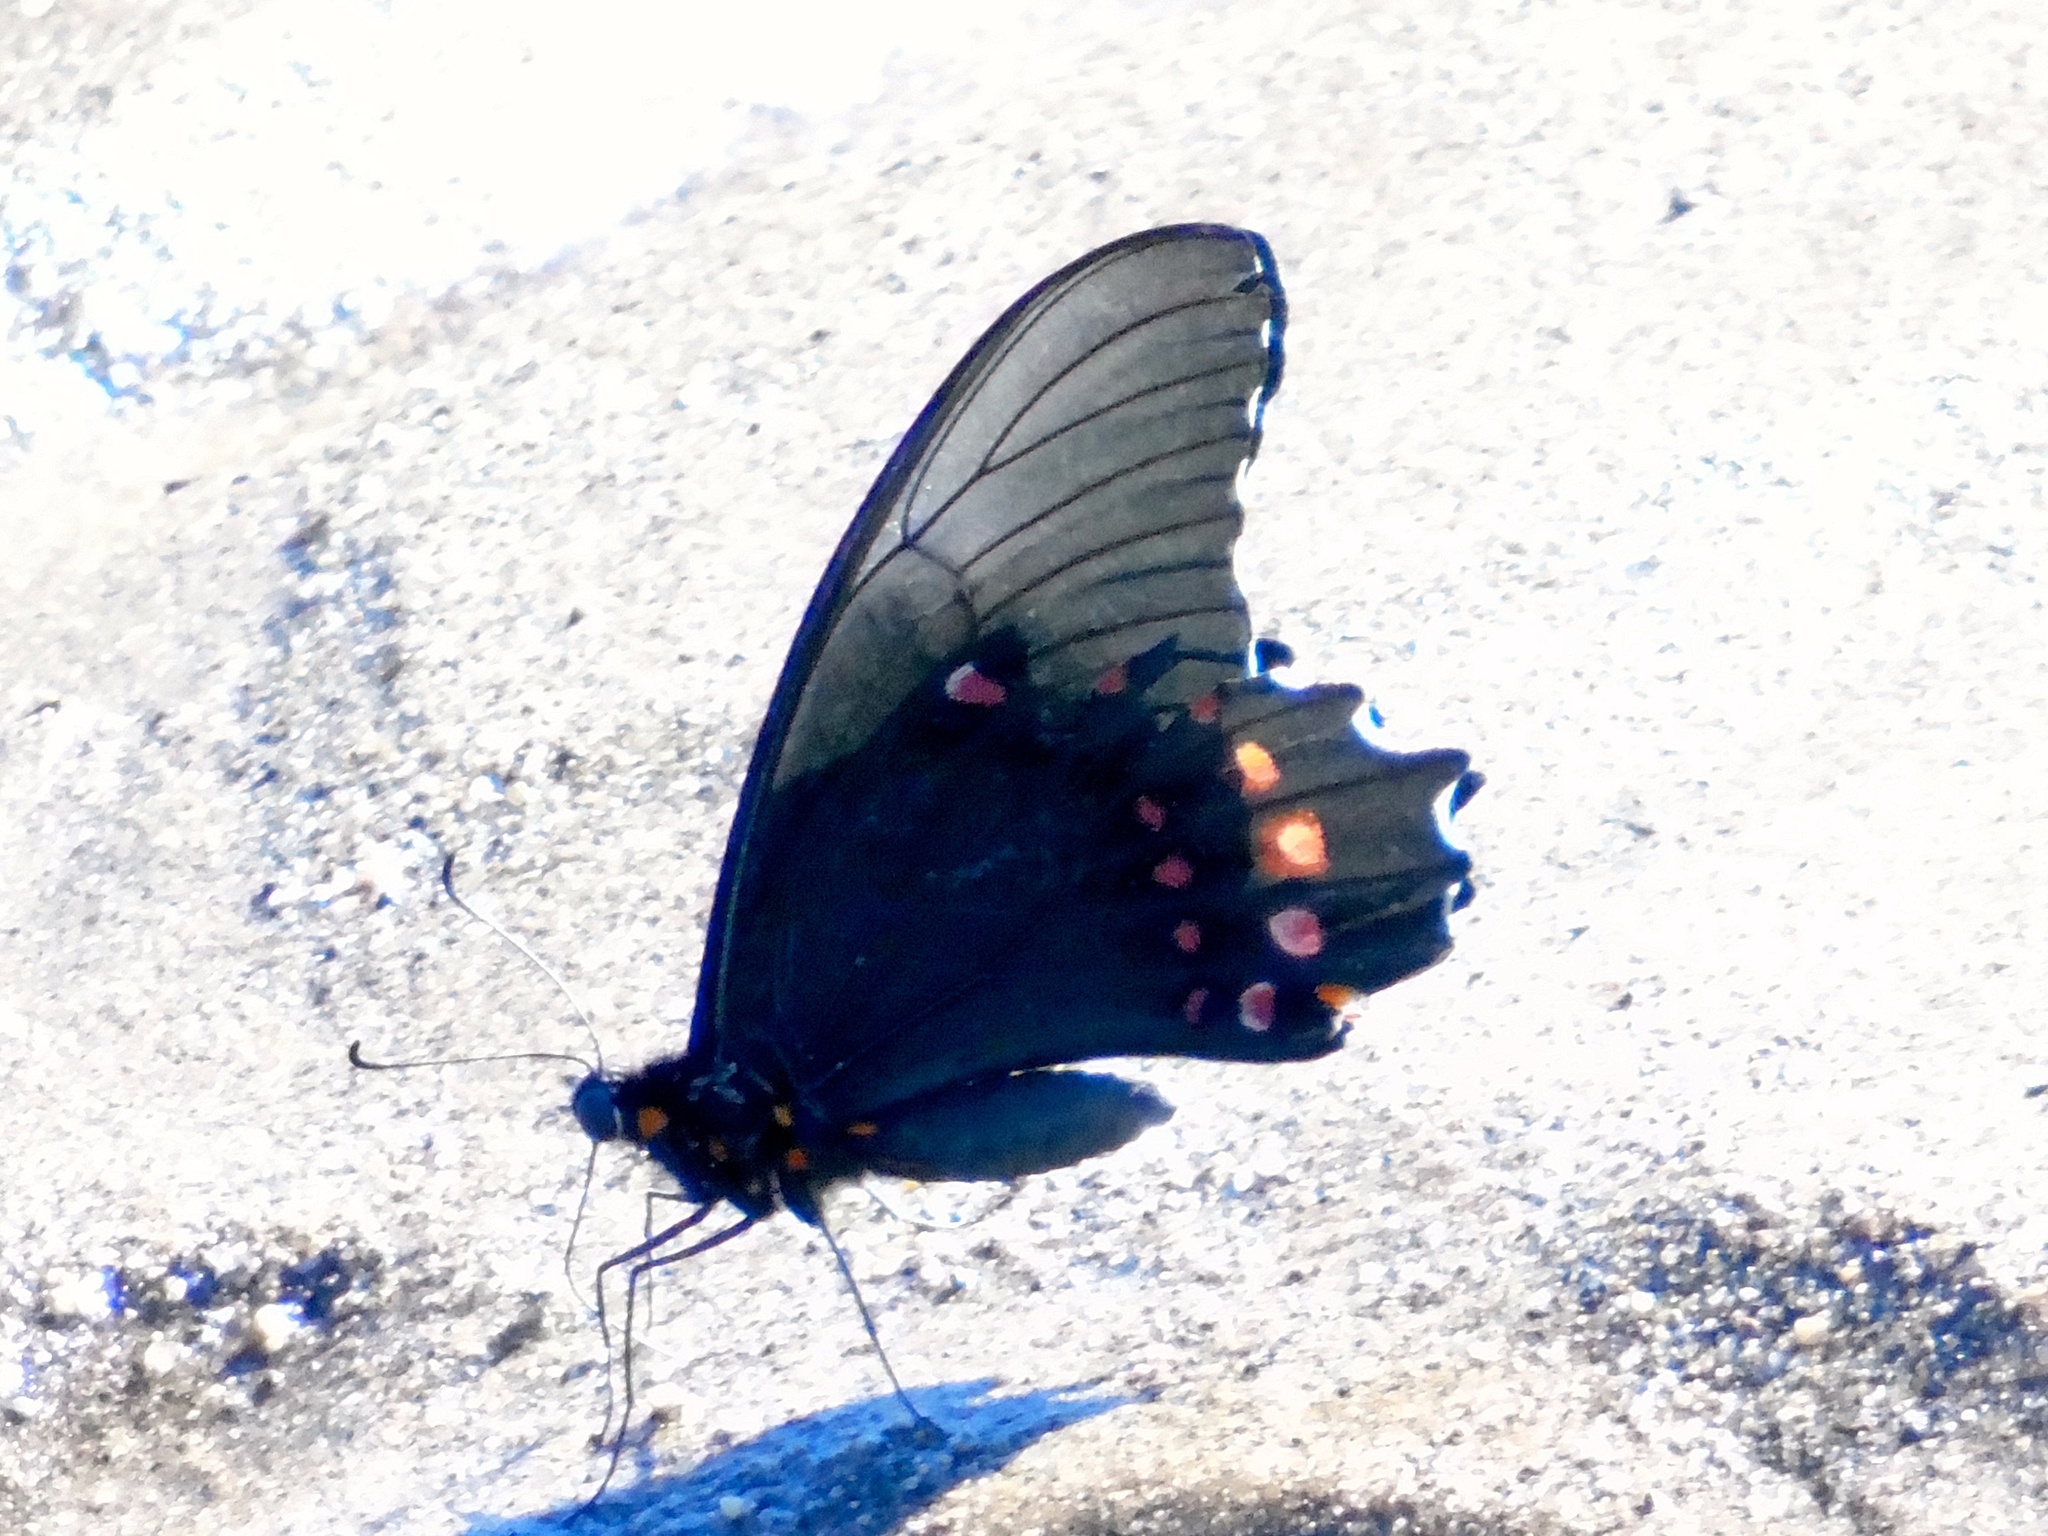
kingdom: Animalia
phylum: Arthropoda
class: Insecta
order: Lepidoptera
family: Papilionidae
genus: Heraclides
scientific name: Heraclides rogeri
